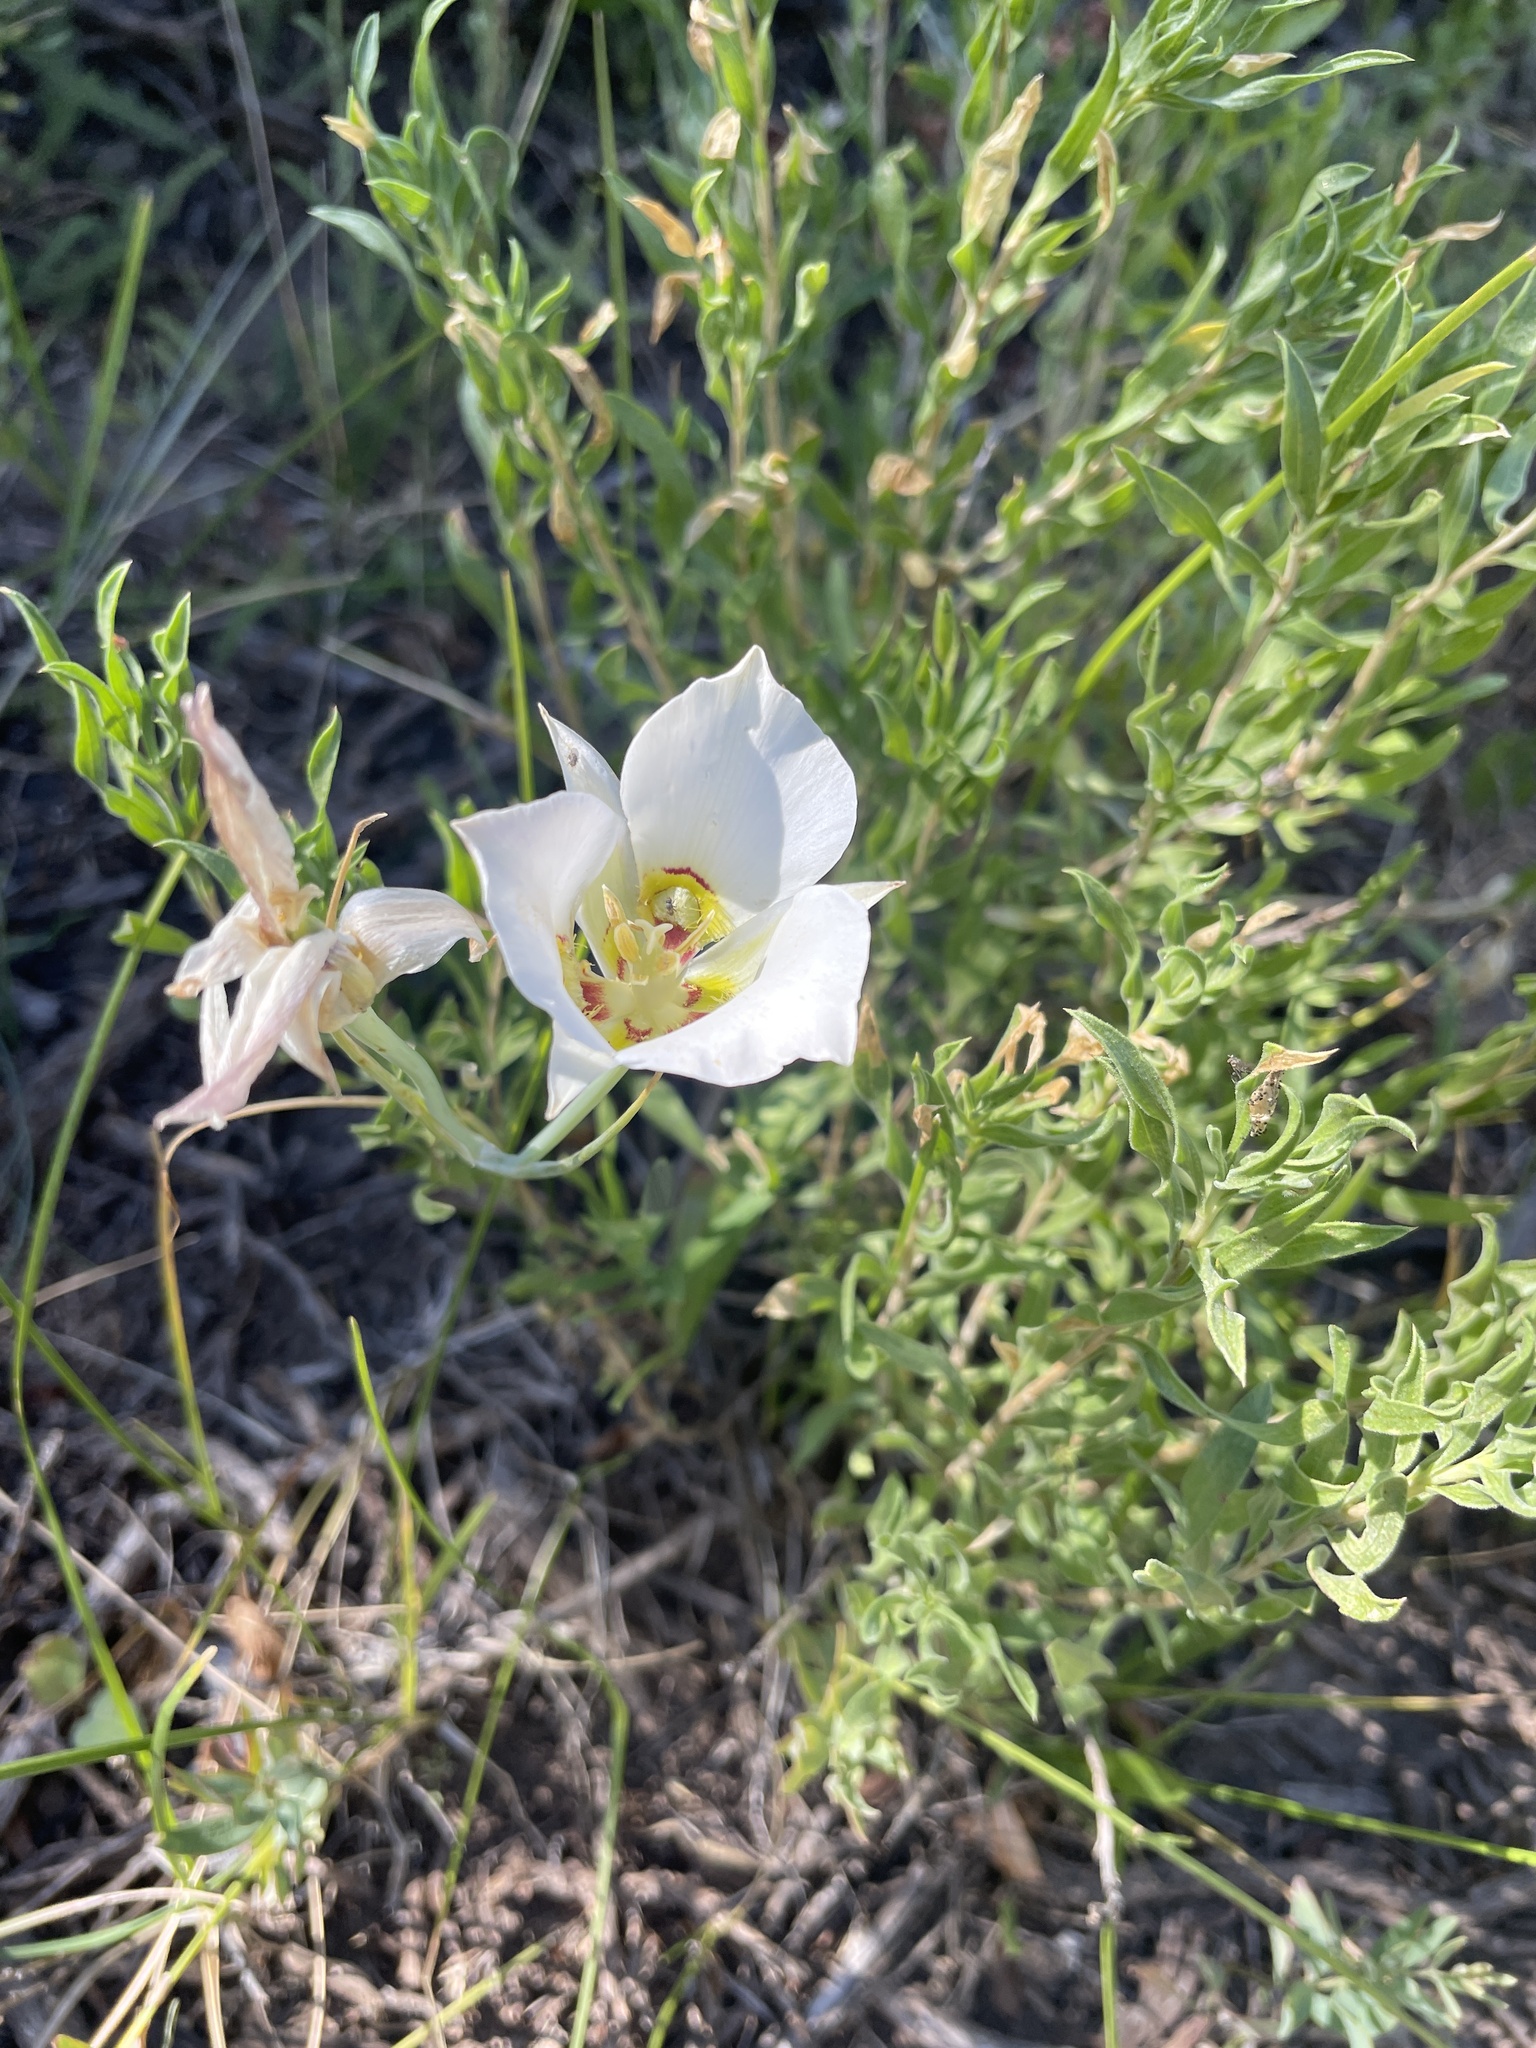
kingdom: Plantae
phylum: Tracheophyta
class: Liliopsida
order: Liliales
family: Liliaceae
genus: Calochortus
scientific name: Calochortus nuttallii
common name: Sego-lily
